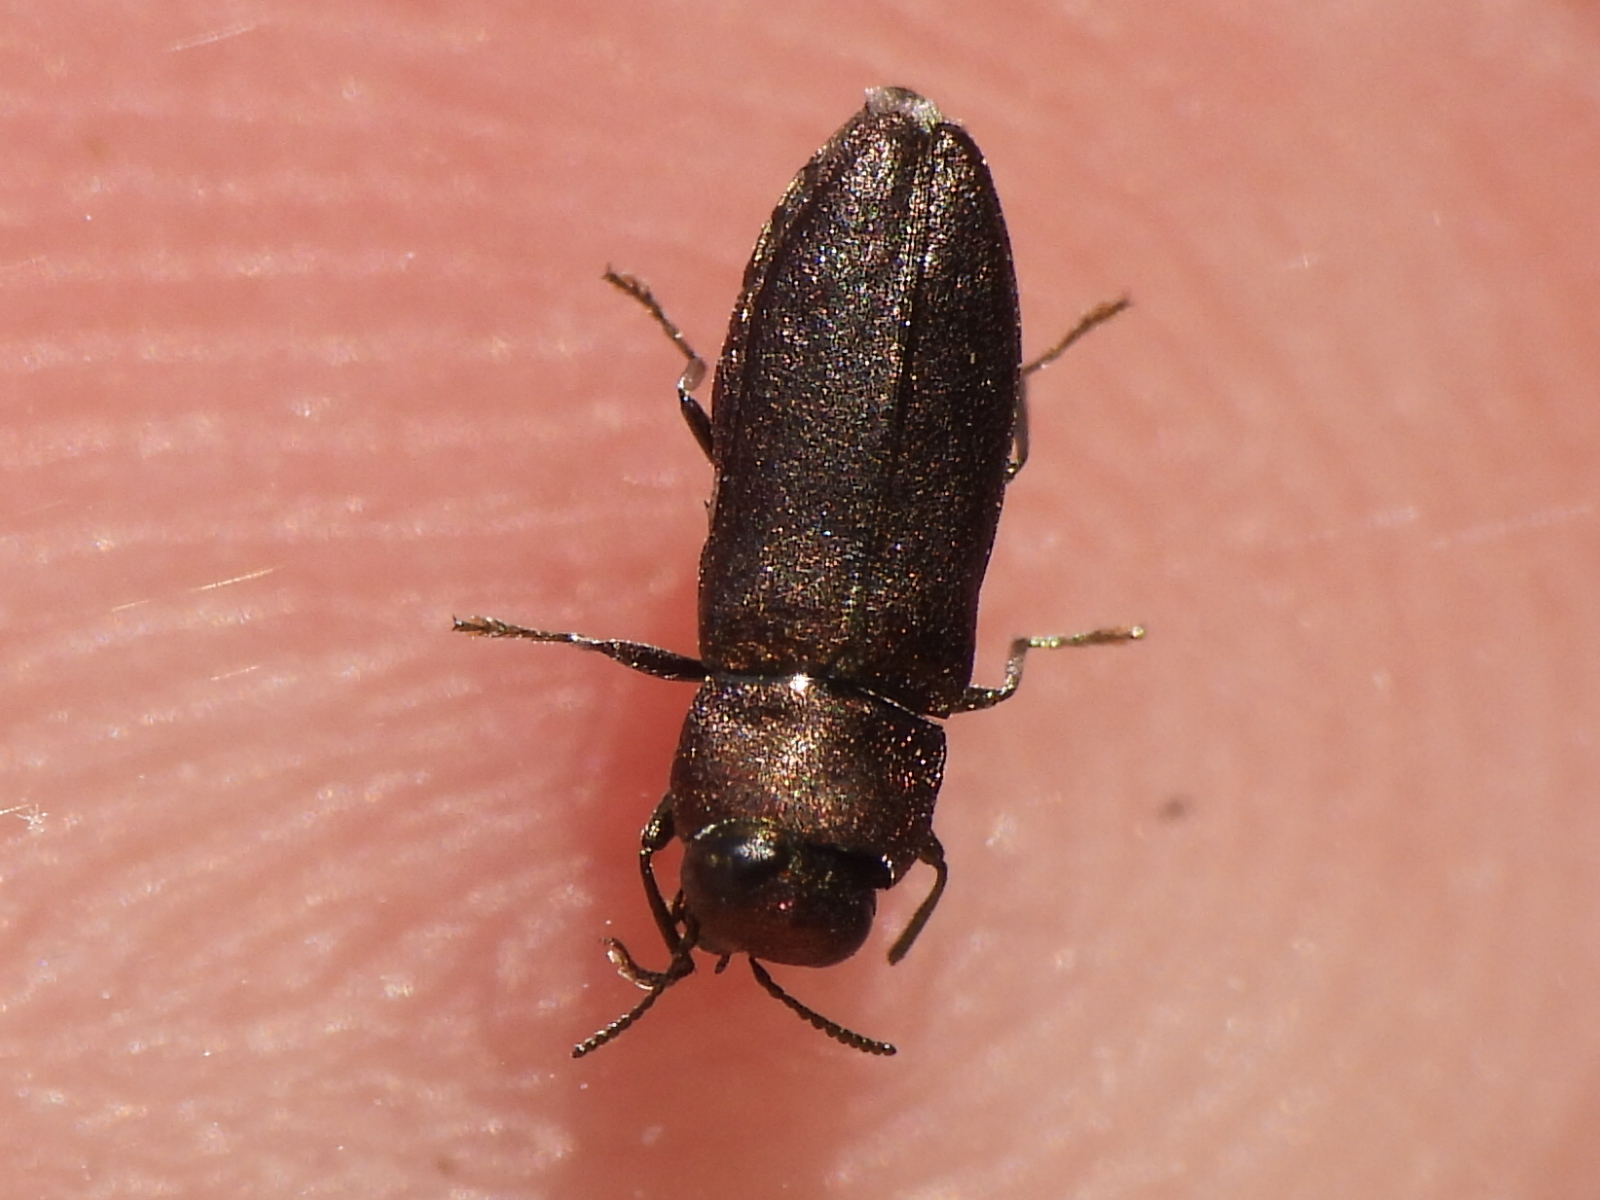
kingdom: Animalia
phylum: Arthropoda
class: Insecta
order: Coleoptera
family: Buprestidae
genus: Anthaxia
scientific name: Anthaxia viridifrons
